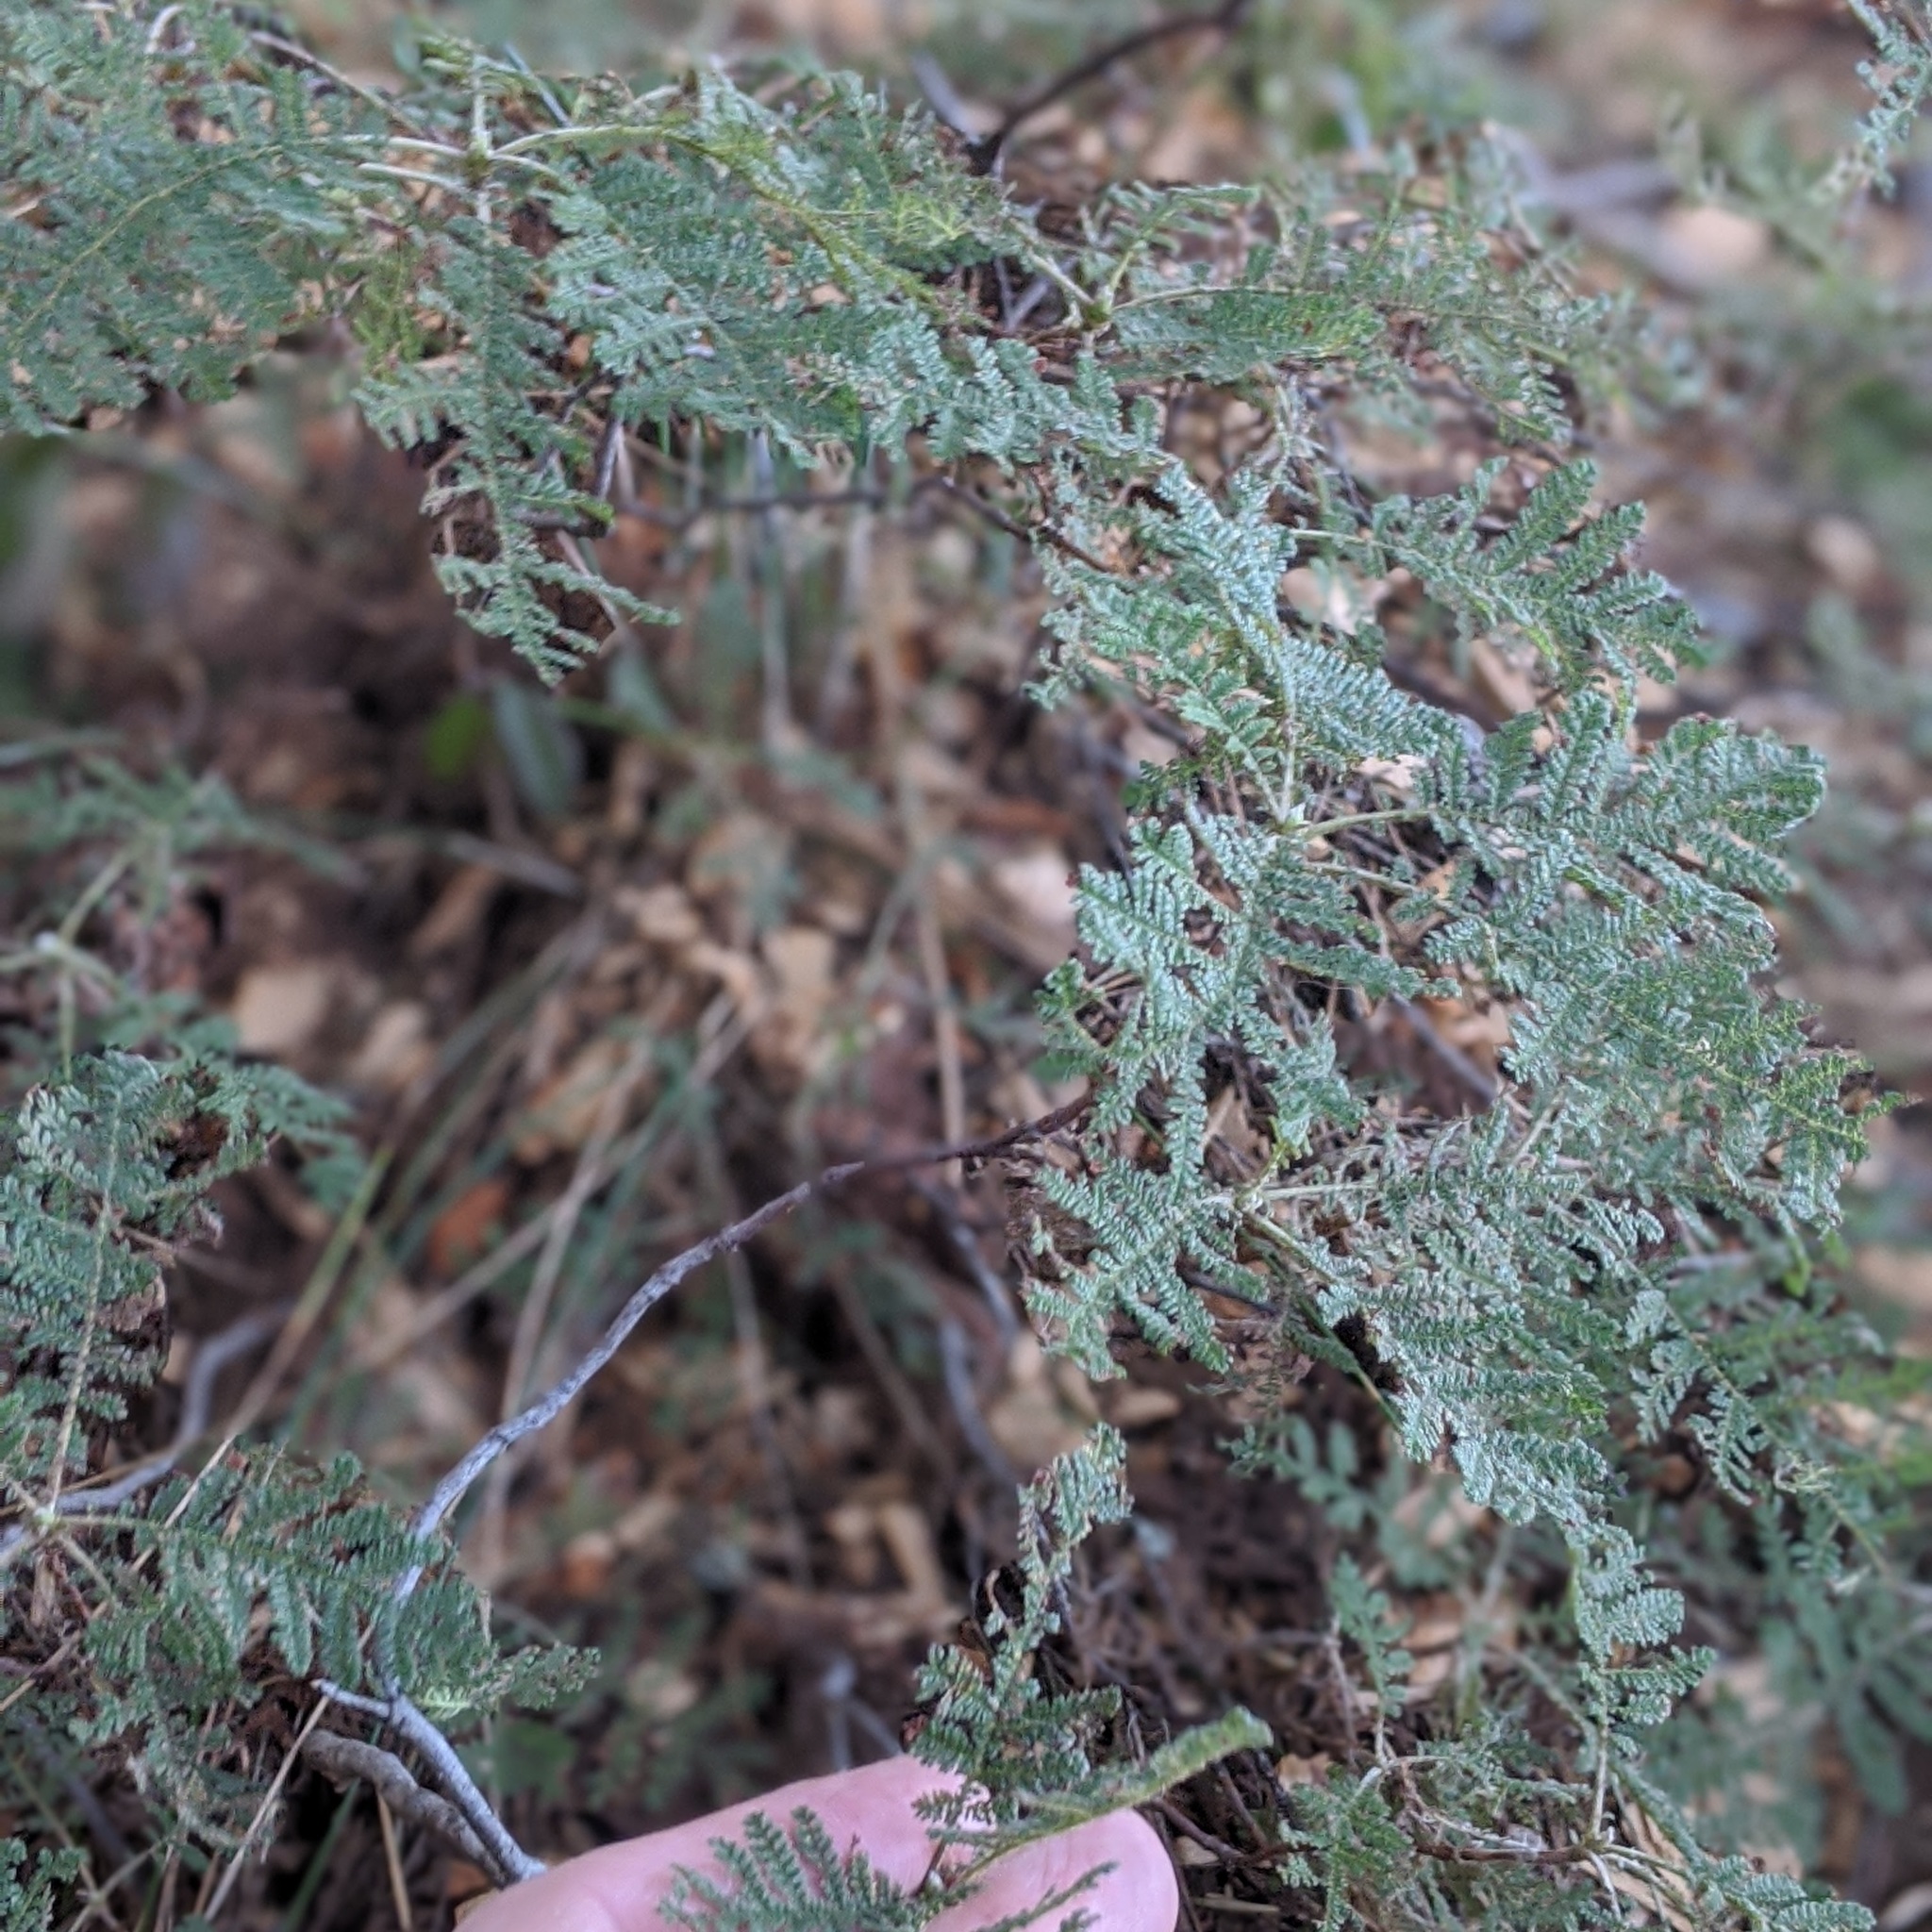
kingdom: Plantae
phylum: Tracheophyta
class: Magnoliopsida
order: Rosales
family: Rosaceae
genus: Chamaebatia
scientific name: Chamaebatia foliolosa
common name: Mountain misery
